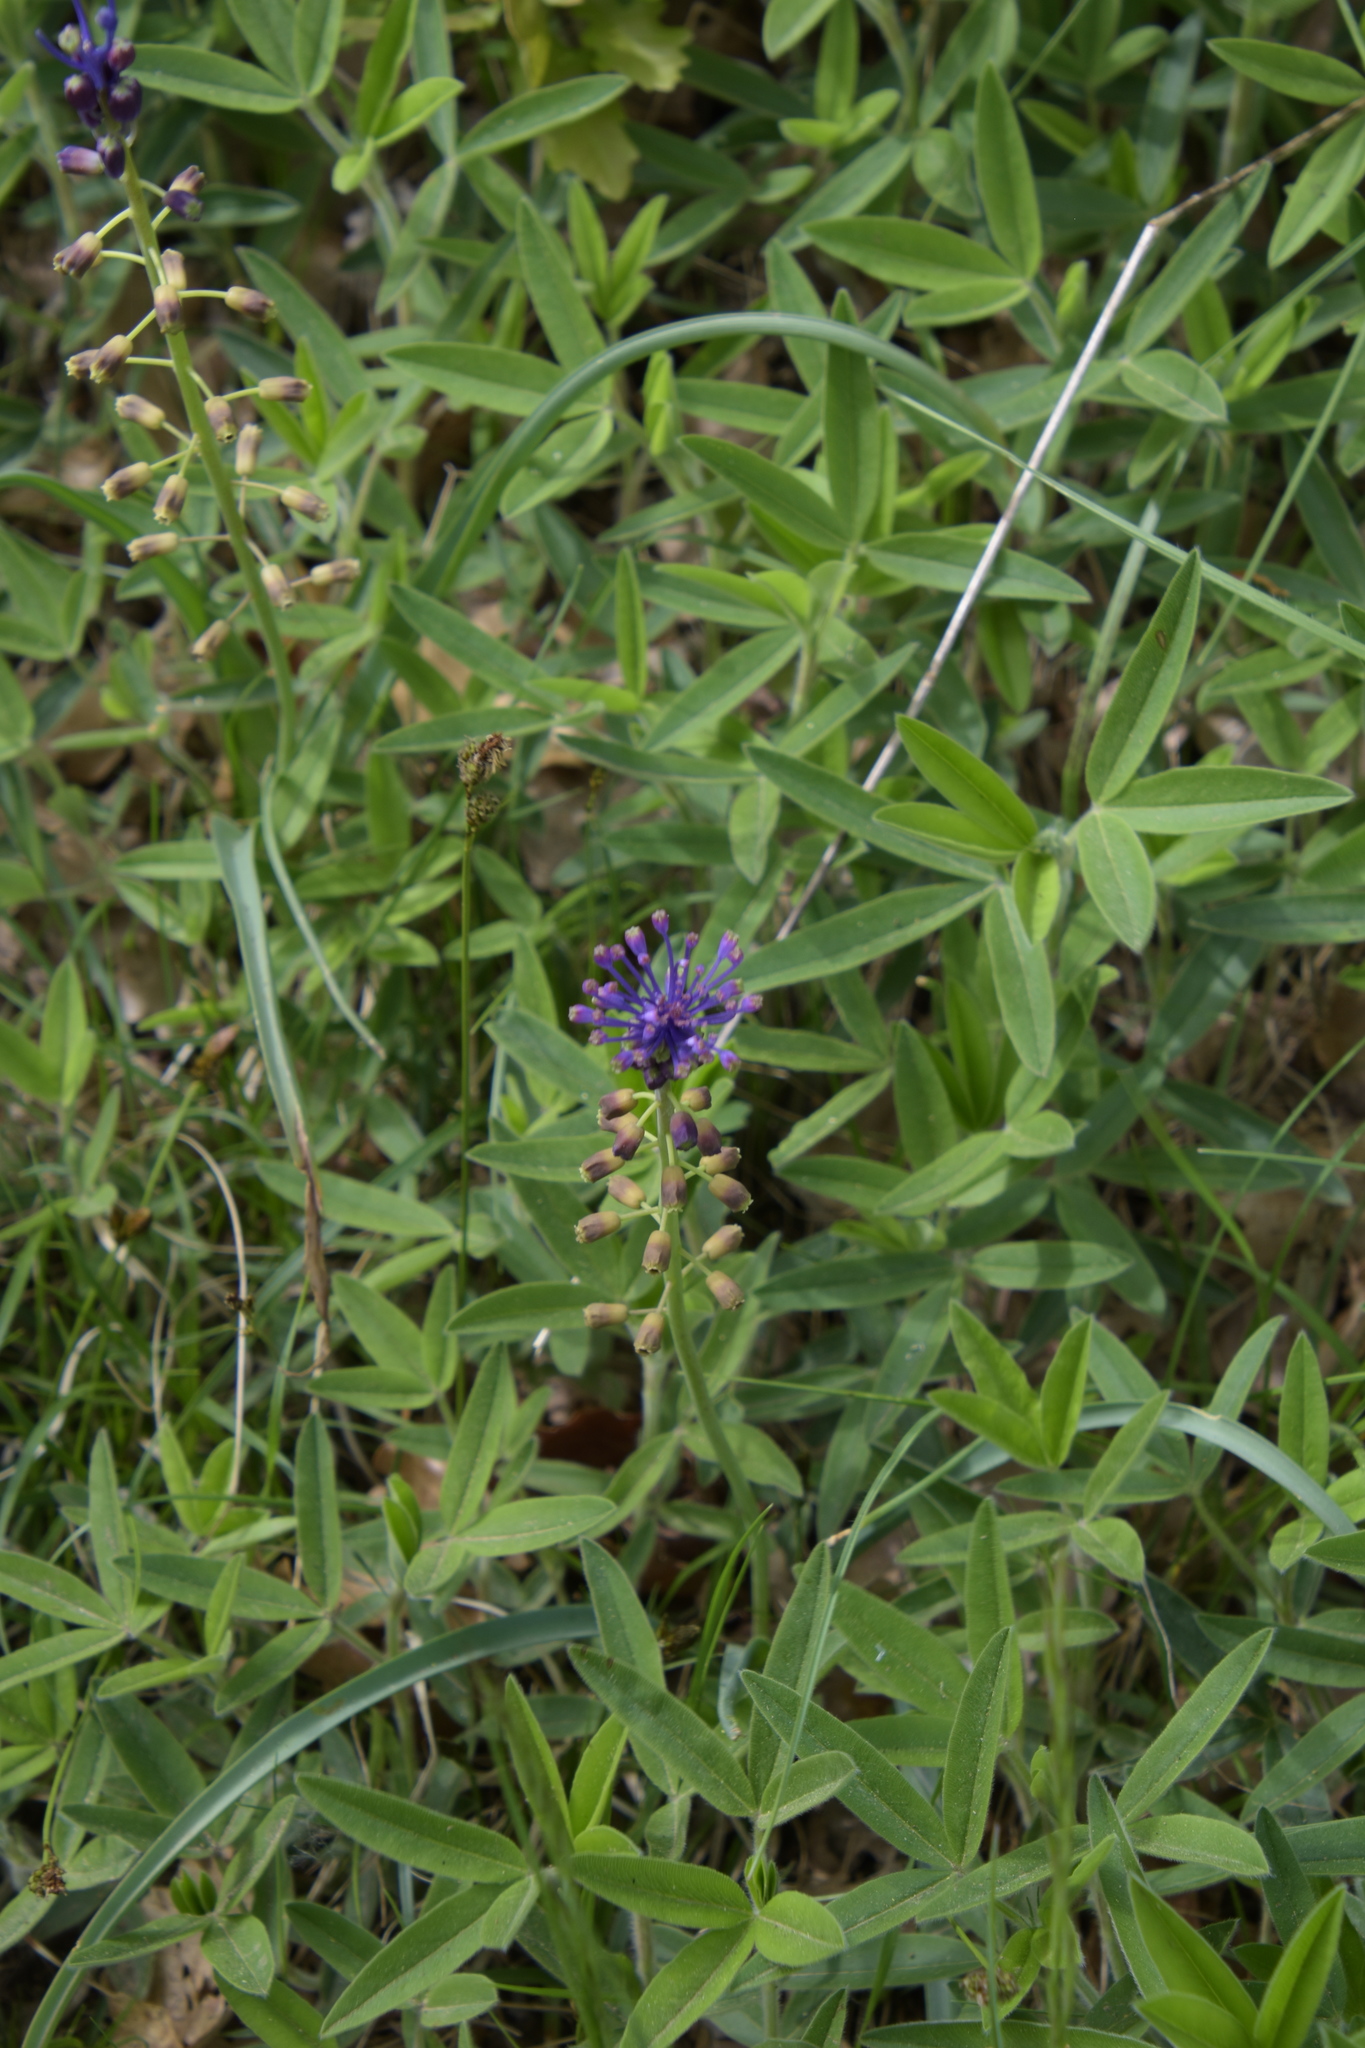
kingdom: Plantae
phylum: Tracheophyta
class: Liliopsida
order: Asparagales
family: Asparagaceae
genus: Muscari
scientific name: Muscari comosum
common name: Tassel hyacinth
